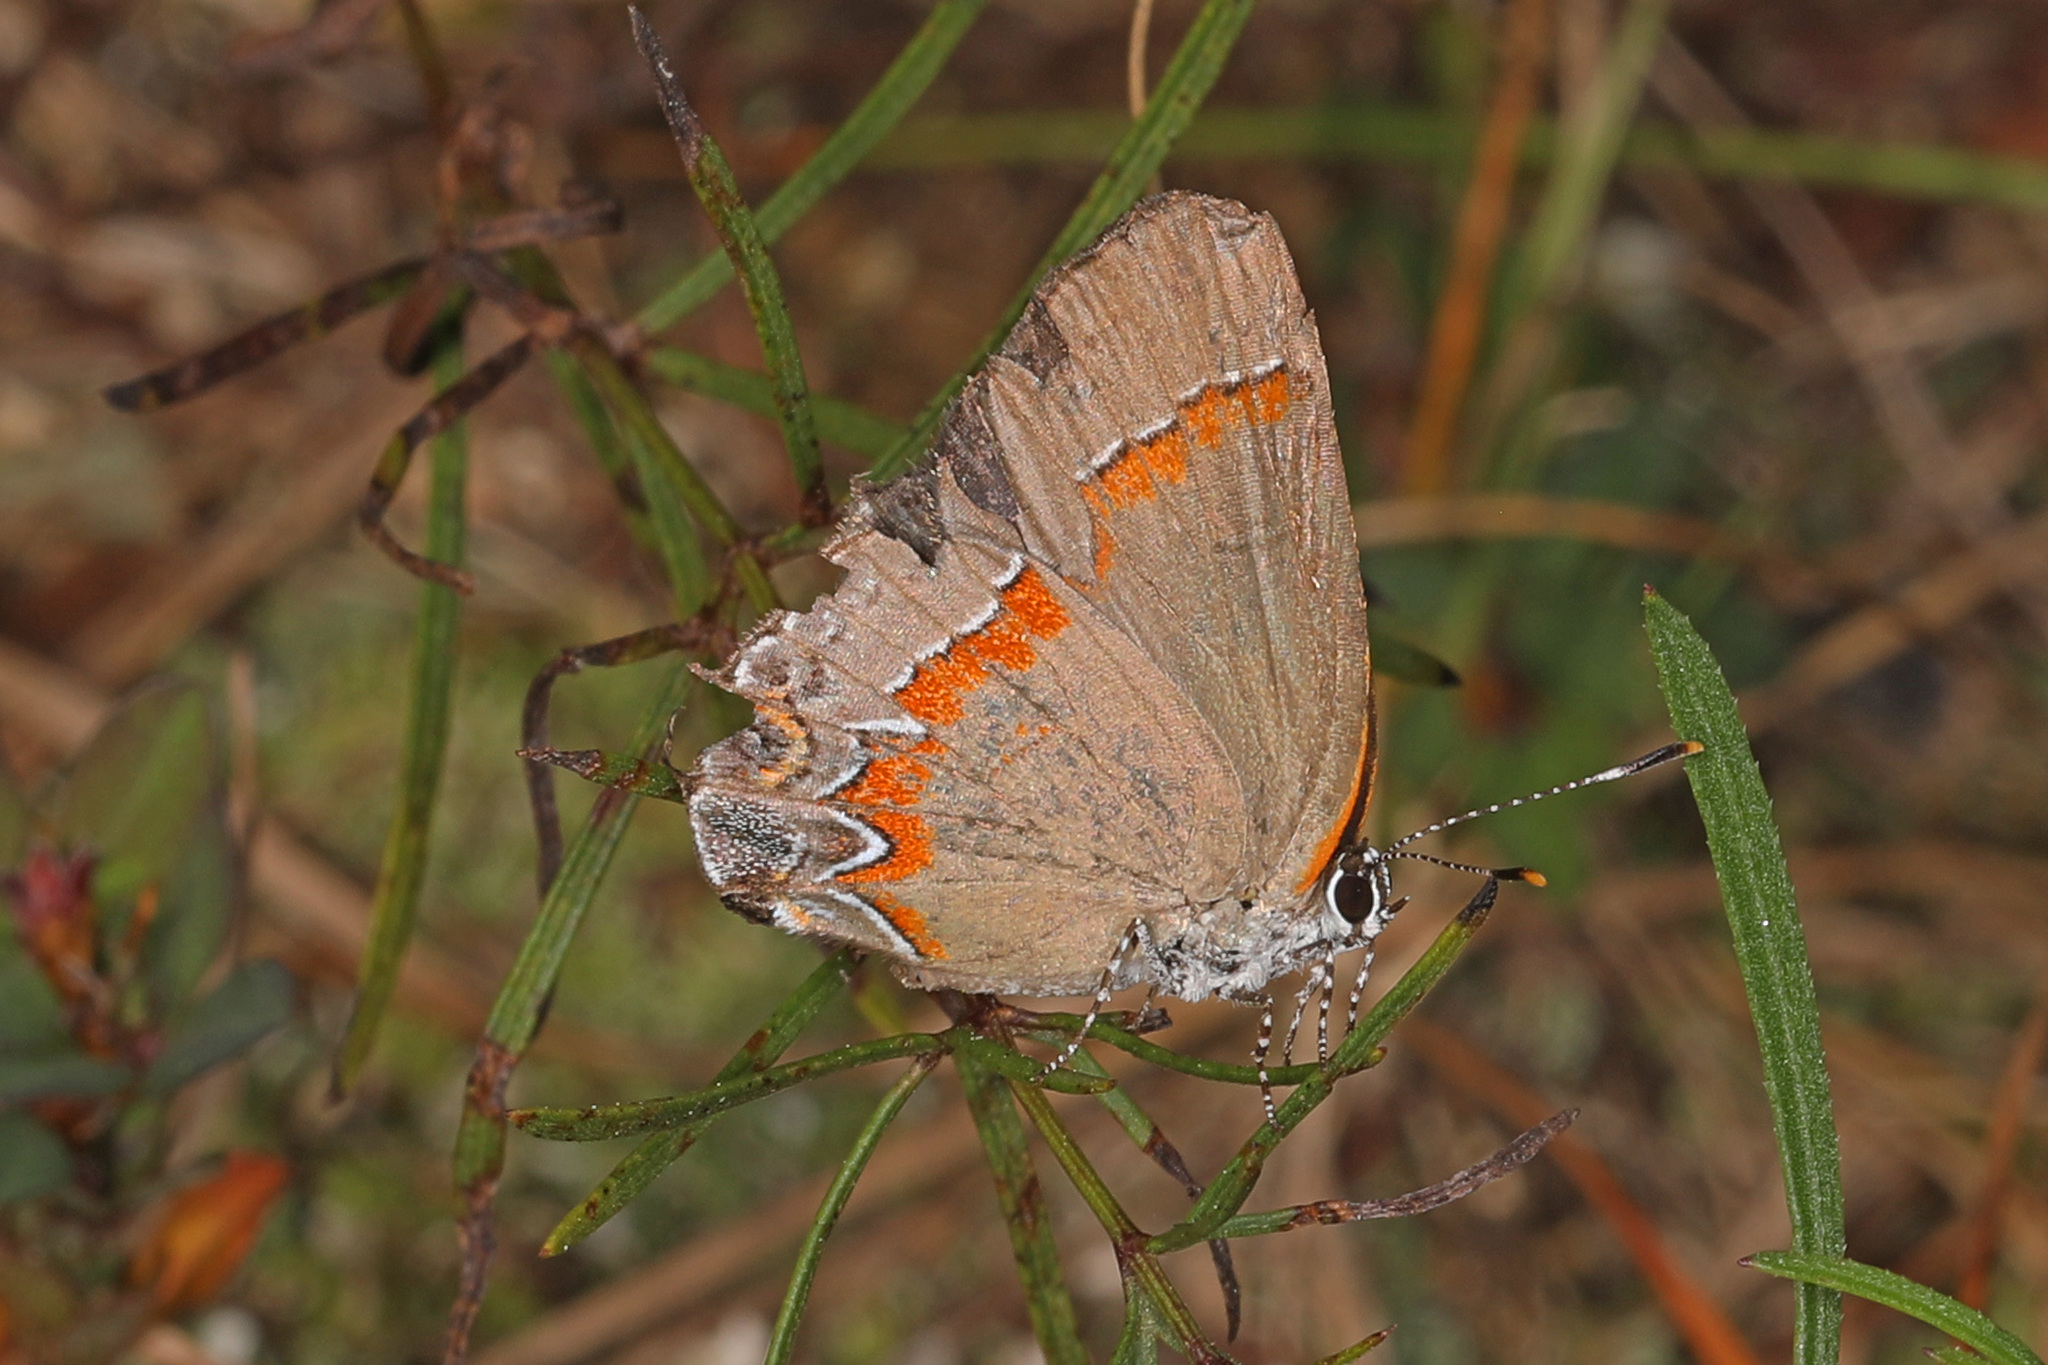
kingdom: Animalia
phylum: Arthropoda
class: Insecta
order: Lepidoptera
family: Lycaenidae
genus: Calycopis
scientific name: Calycopis cecrops
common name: Red-banded hairstreak
